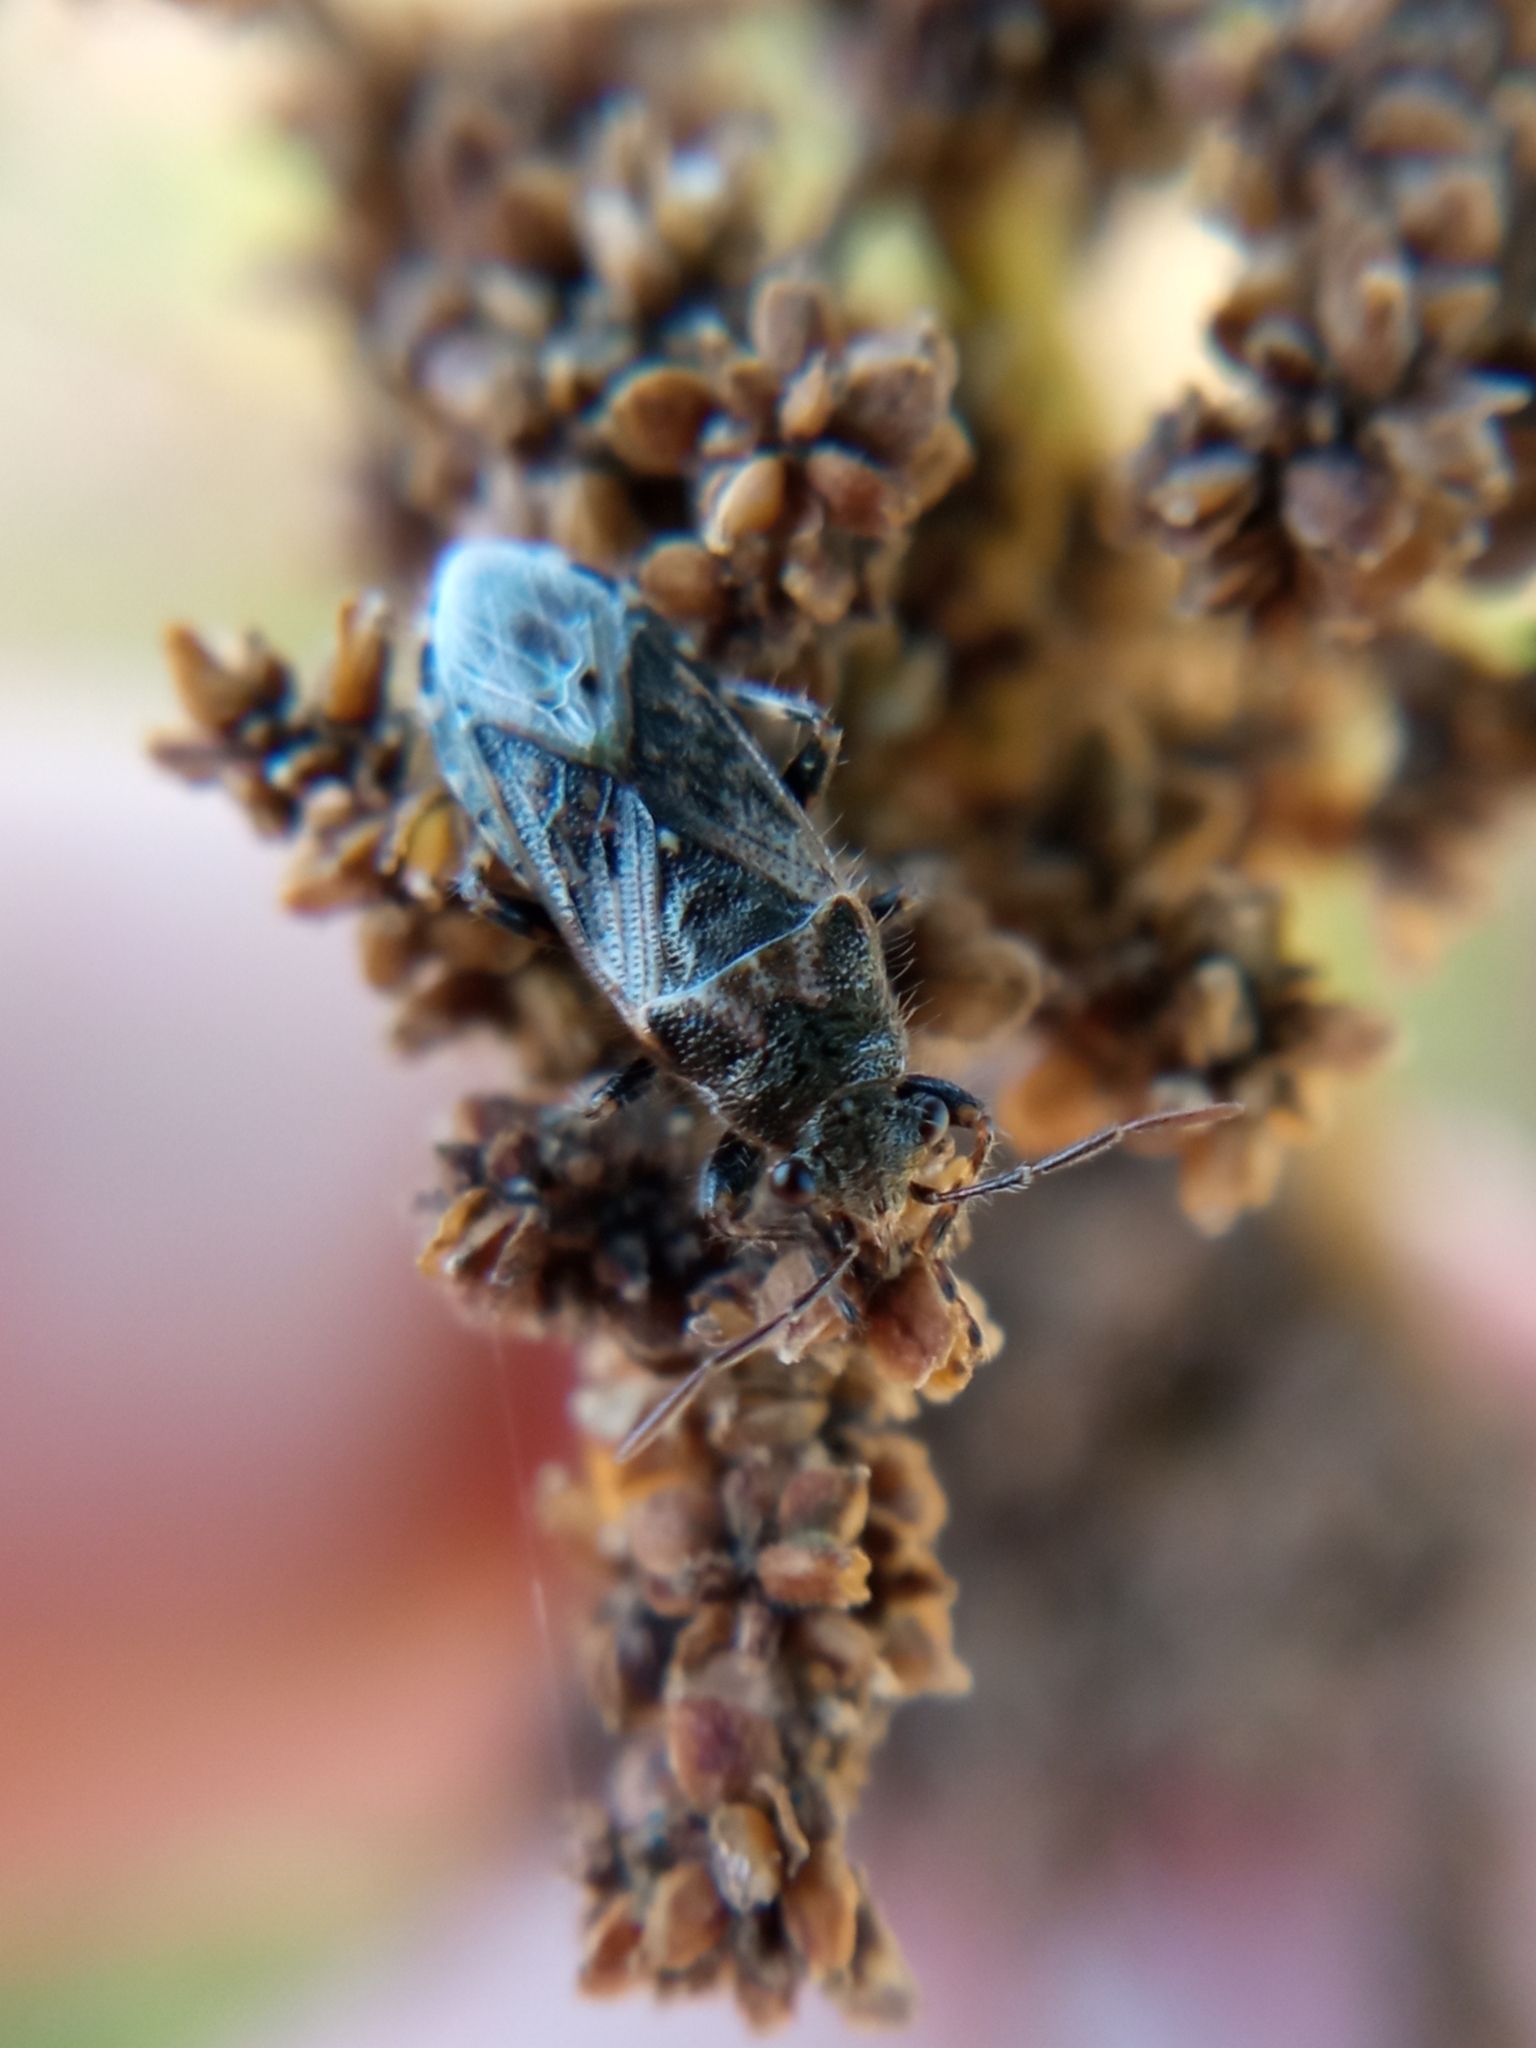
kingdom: Animalia
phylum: Arthropoda
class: Insecta
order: Hemiptera
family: Heterogastridae
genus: Heterogaster
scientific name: Heterogaster urticae
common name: Seed bug
